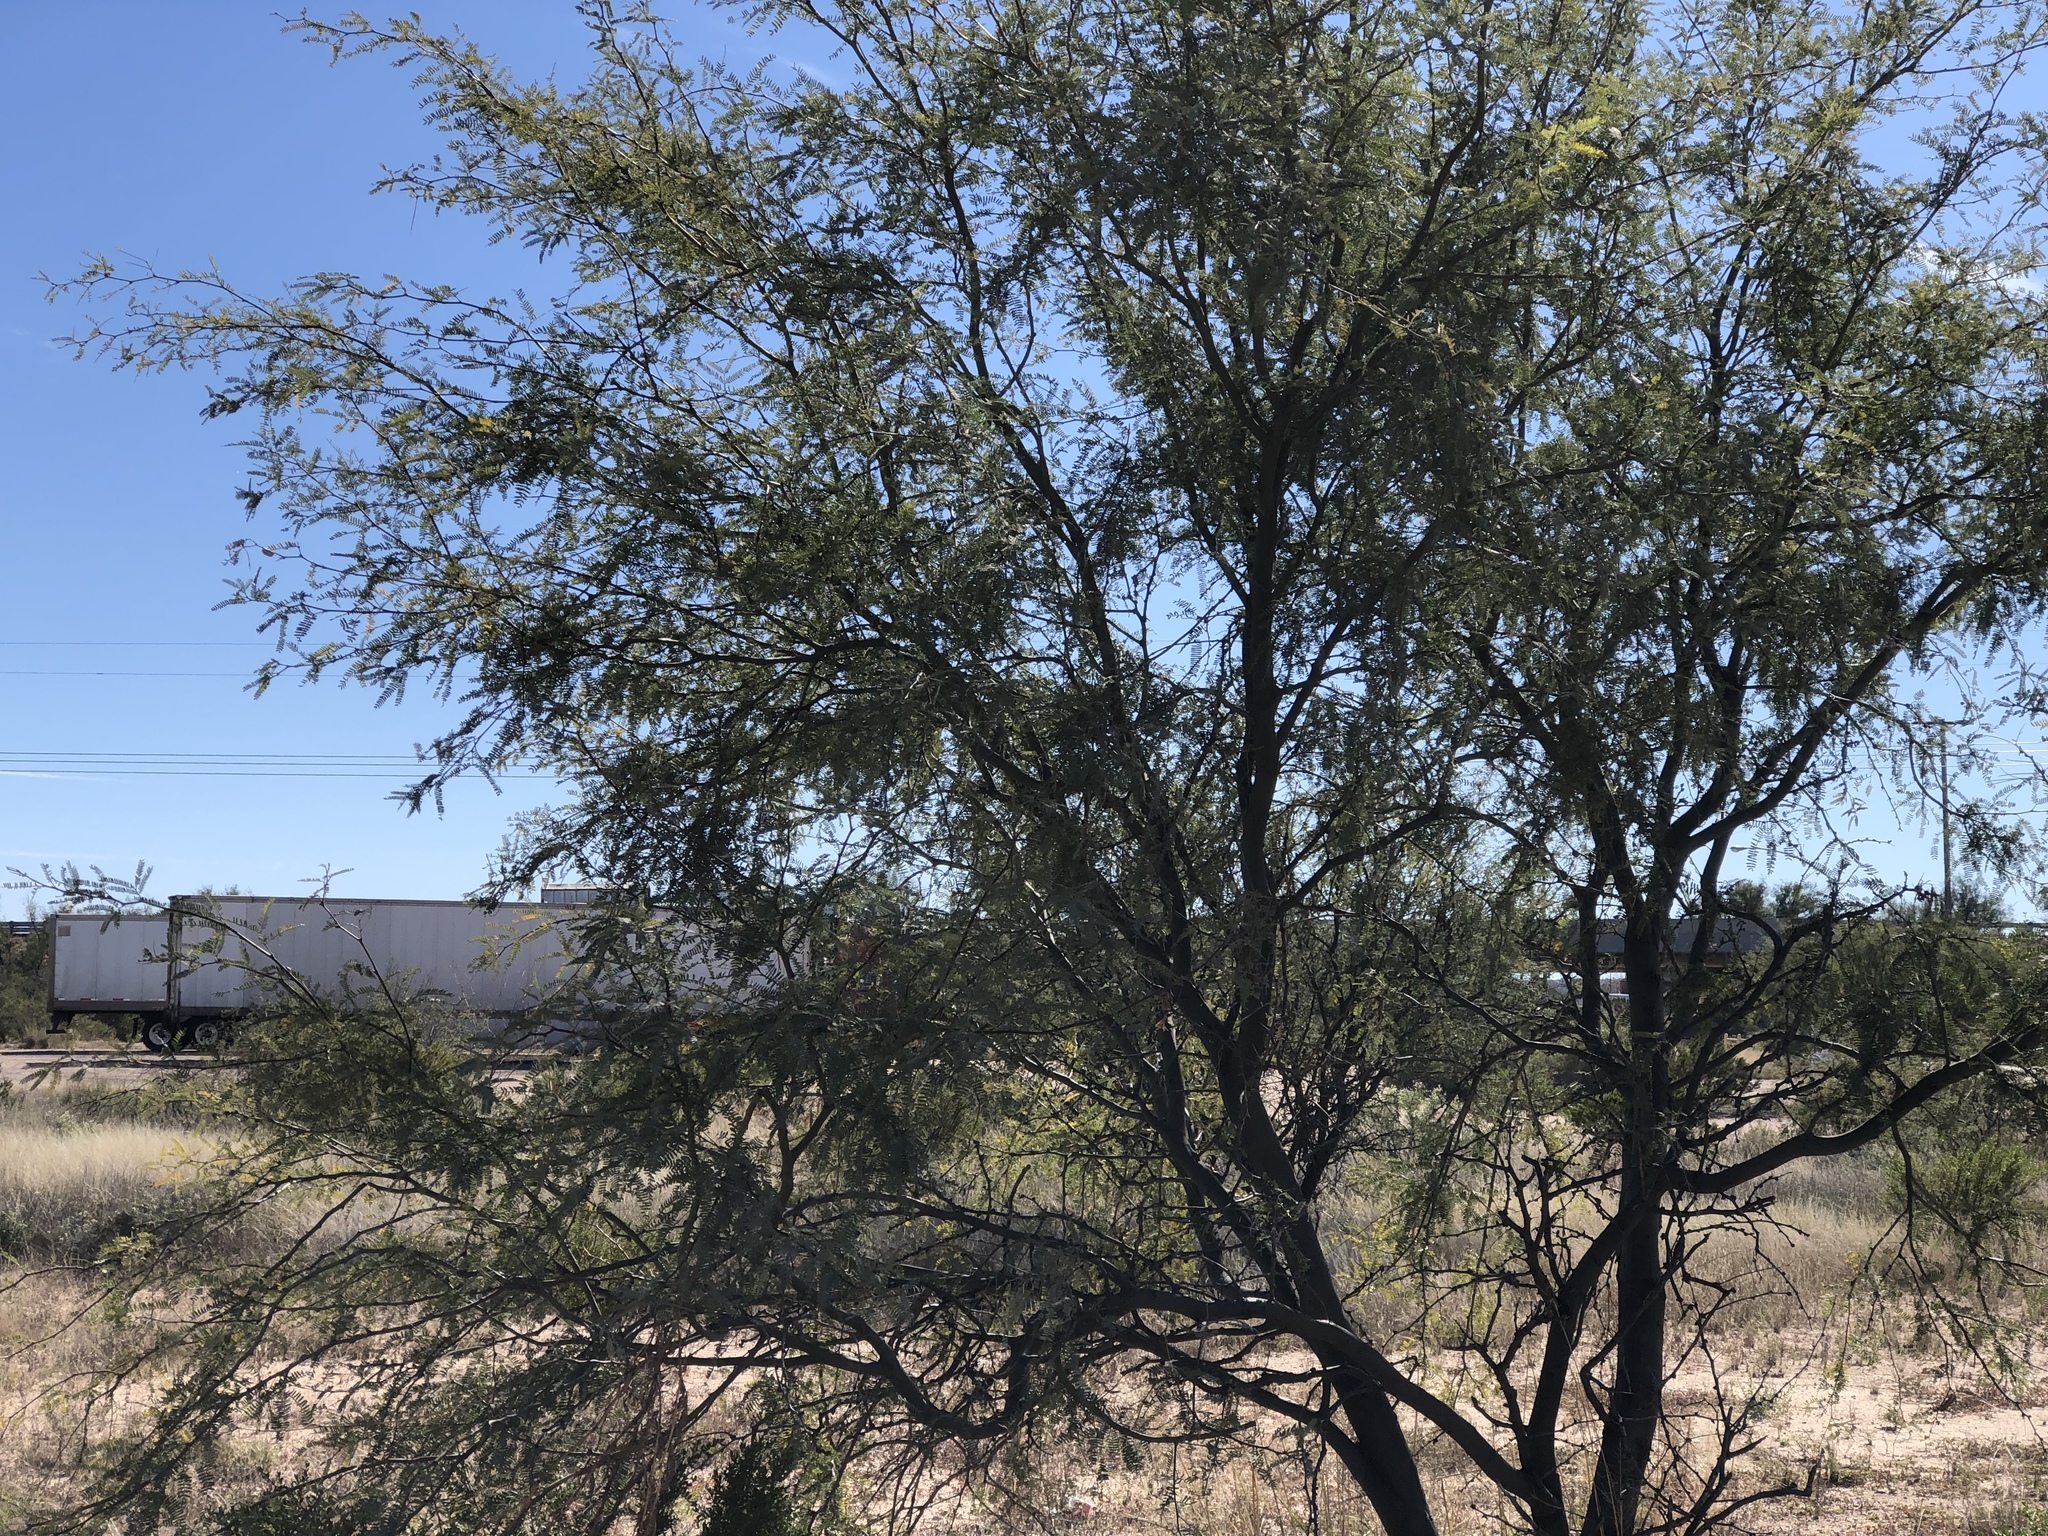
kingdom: Plantae
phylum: Tracheophyta
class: Magnoliopsida
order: Fabales
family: Fabaceae
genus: Prosopis
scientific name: Prosopis glandulosa
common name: Honey mesquite
